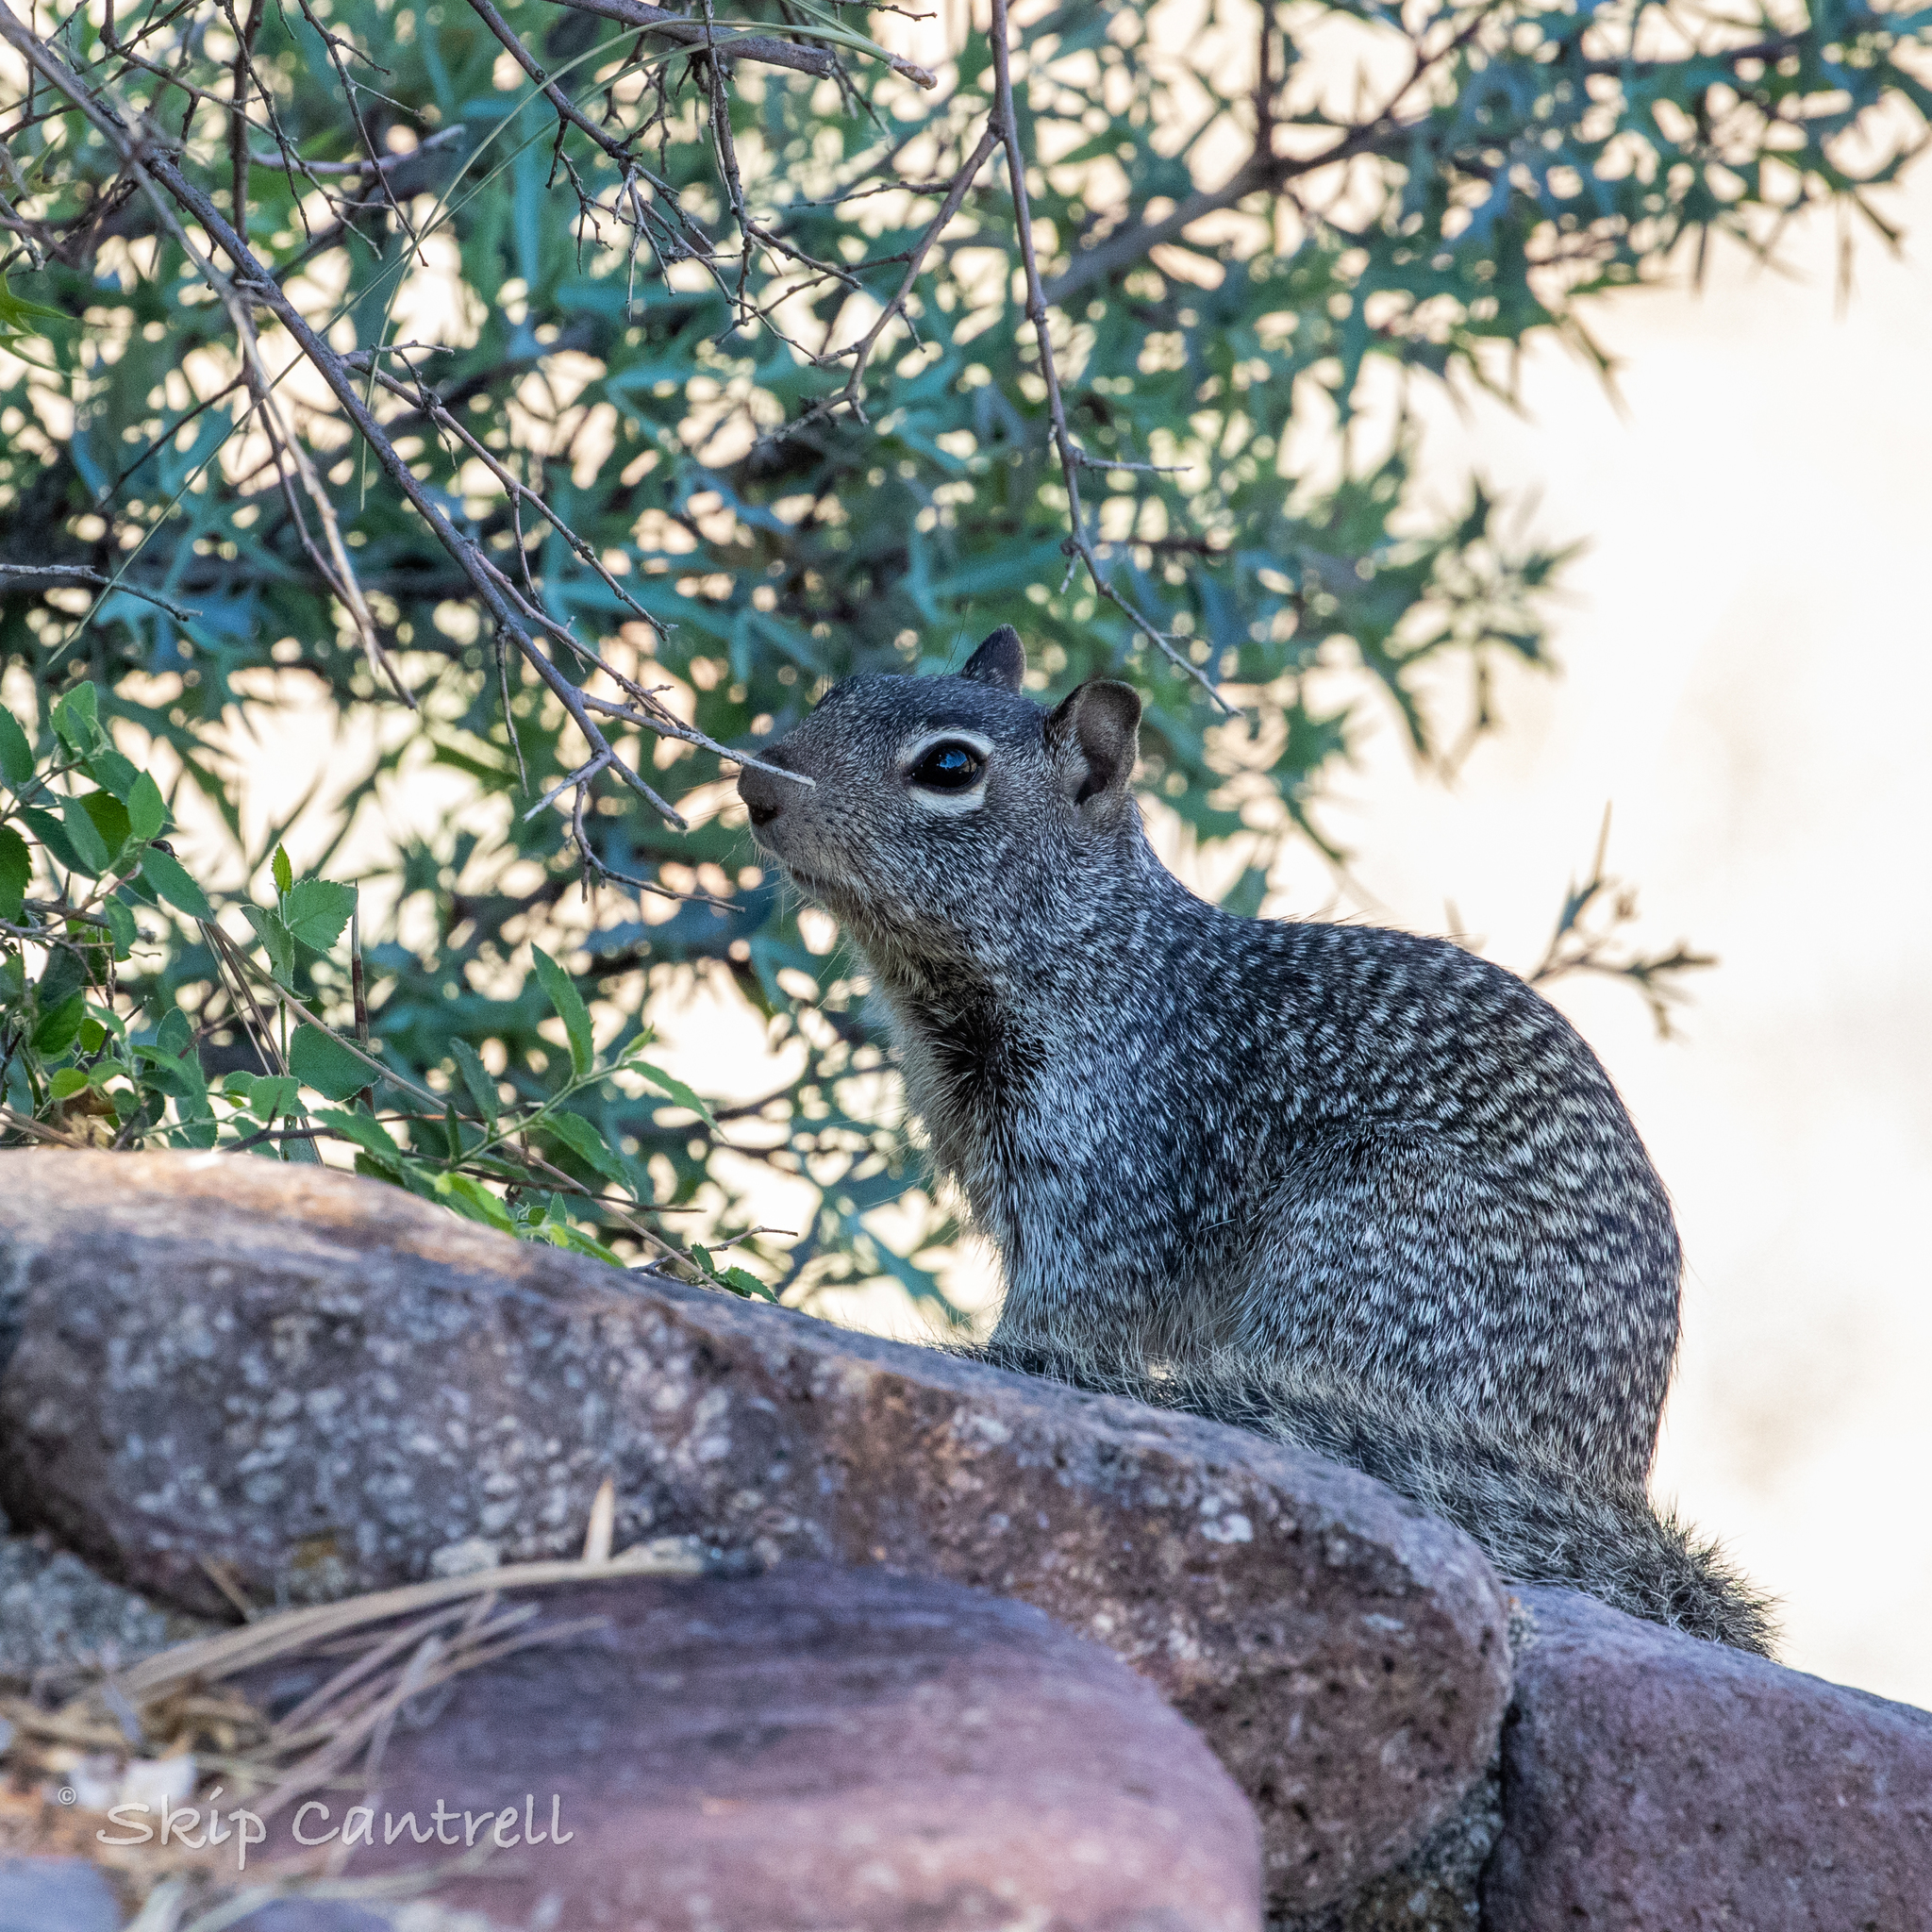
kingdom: Animalia
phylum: Chordata
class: Mammalia
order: Rodentia
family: Sciuridae
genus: Otospermophilus
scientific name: Otospermophilus variegatus
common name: Rock squirrel
